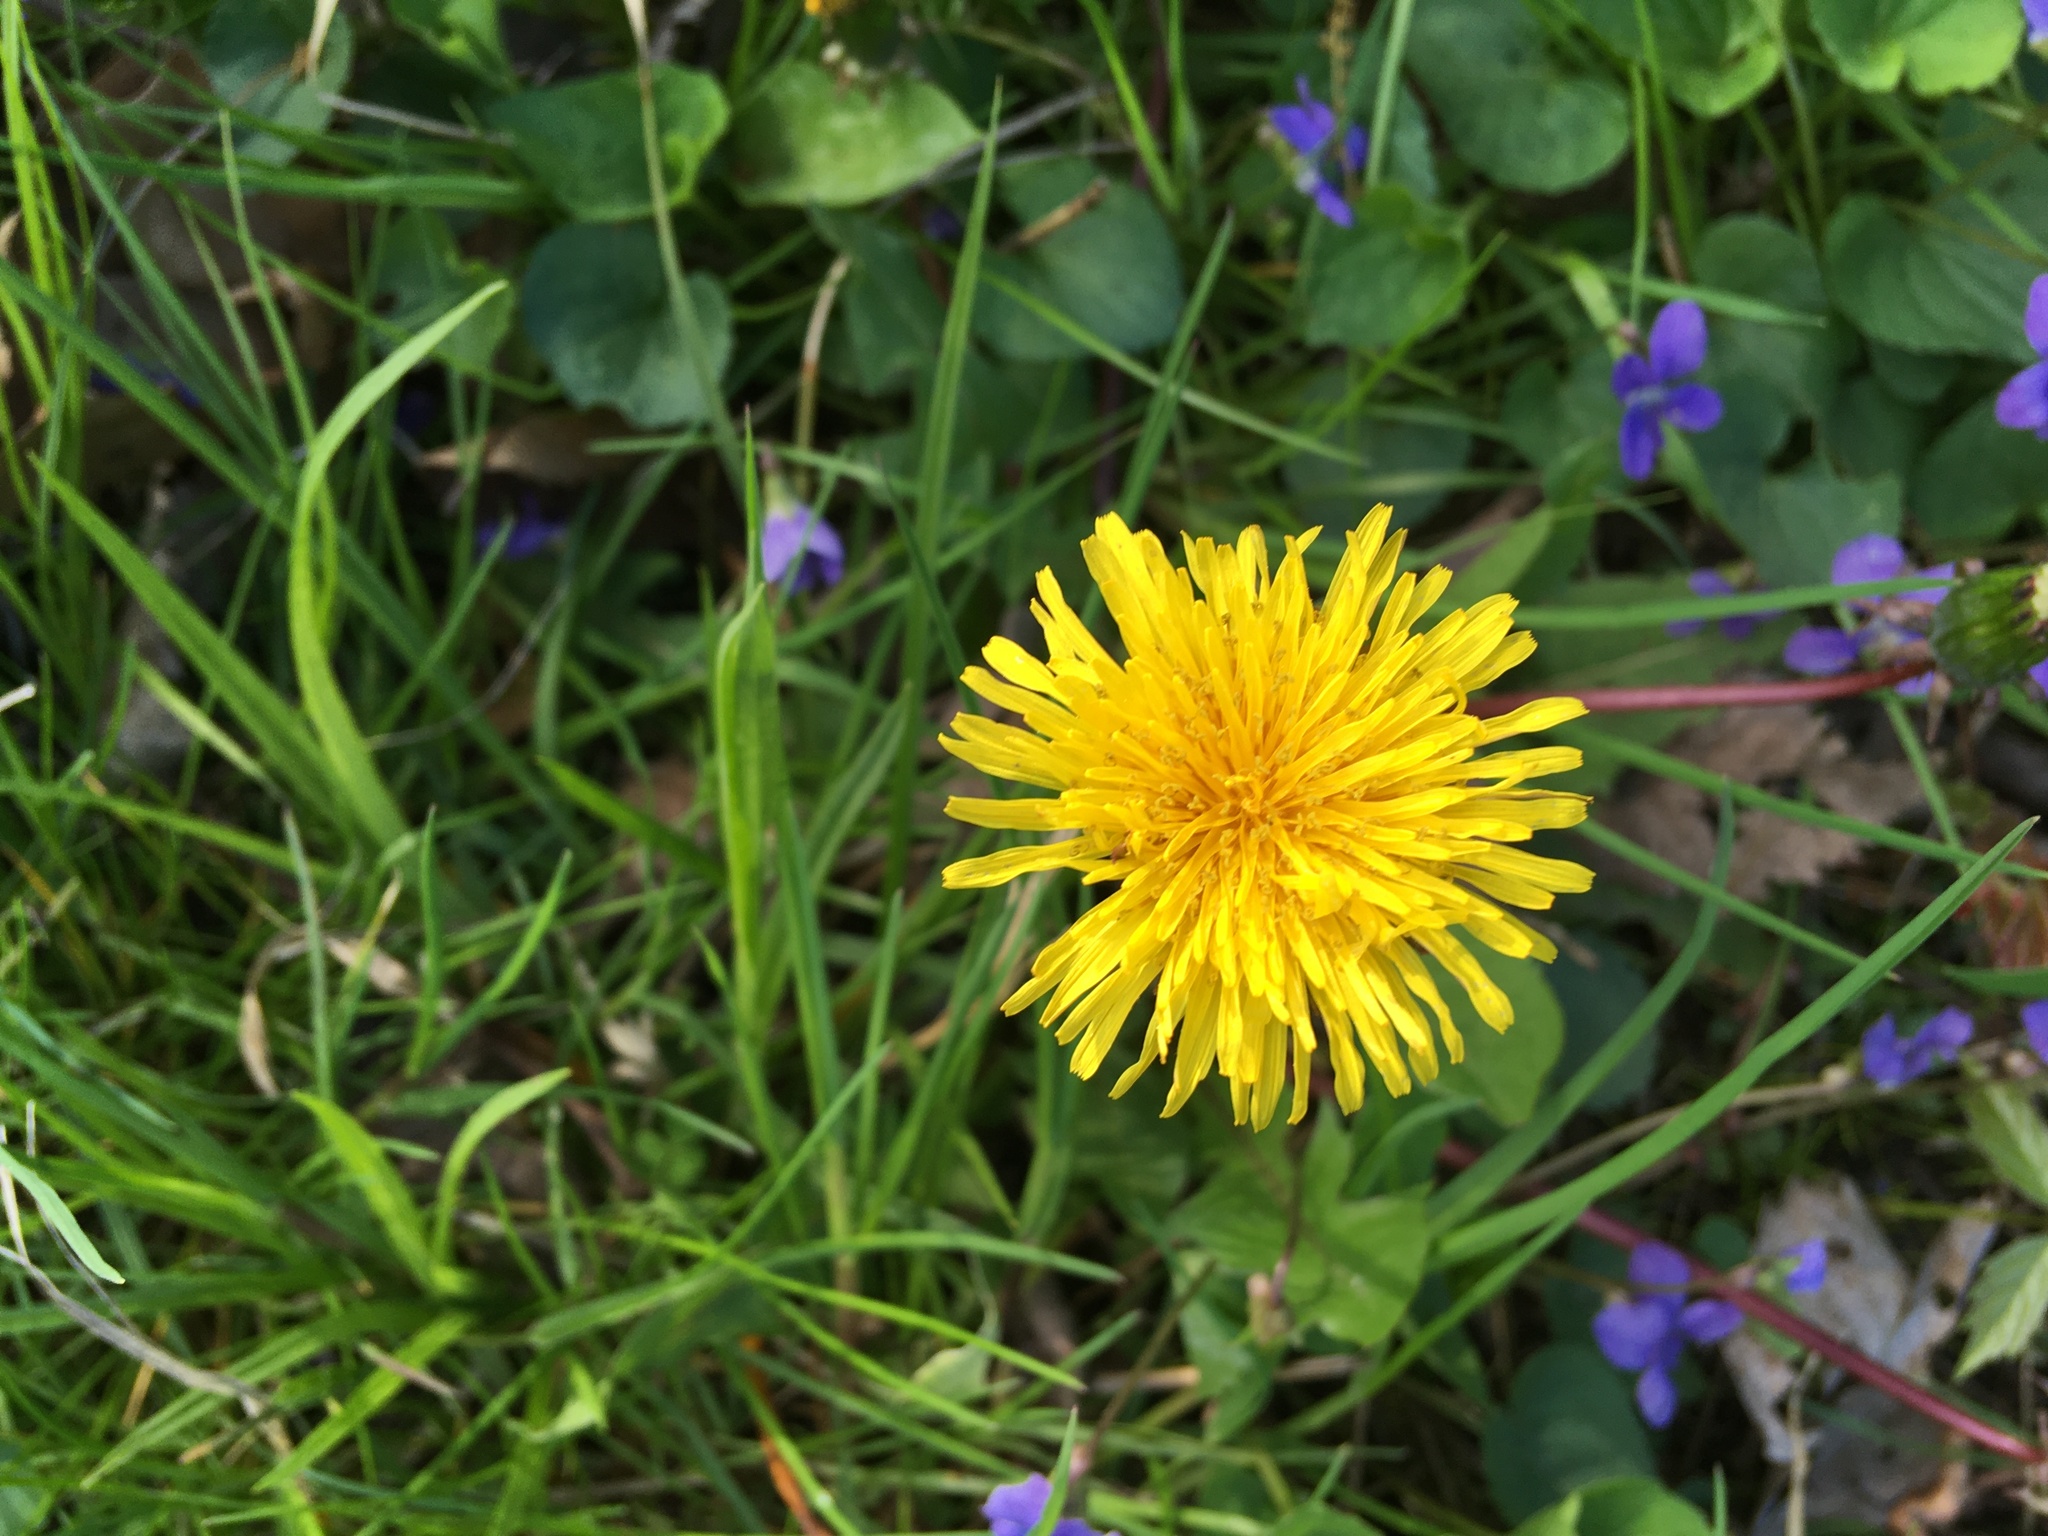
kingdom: Plantae
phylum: Tracheophyta
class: Magnoliopsida
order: Asterales
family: Asteraceae
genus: Taraxacum
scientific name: Taraxacum officinale
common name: Common dandelion
